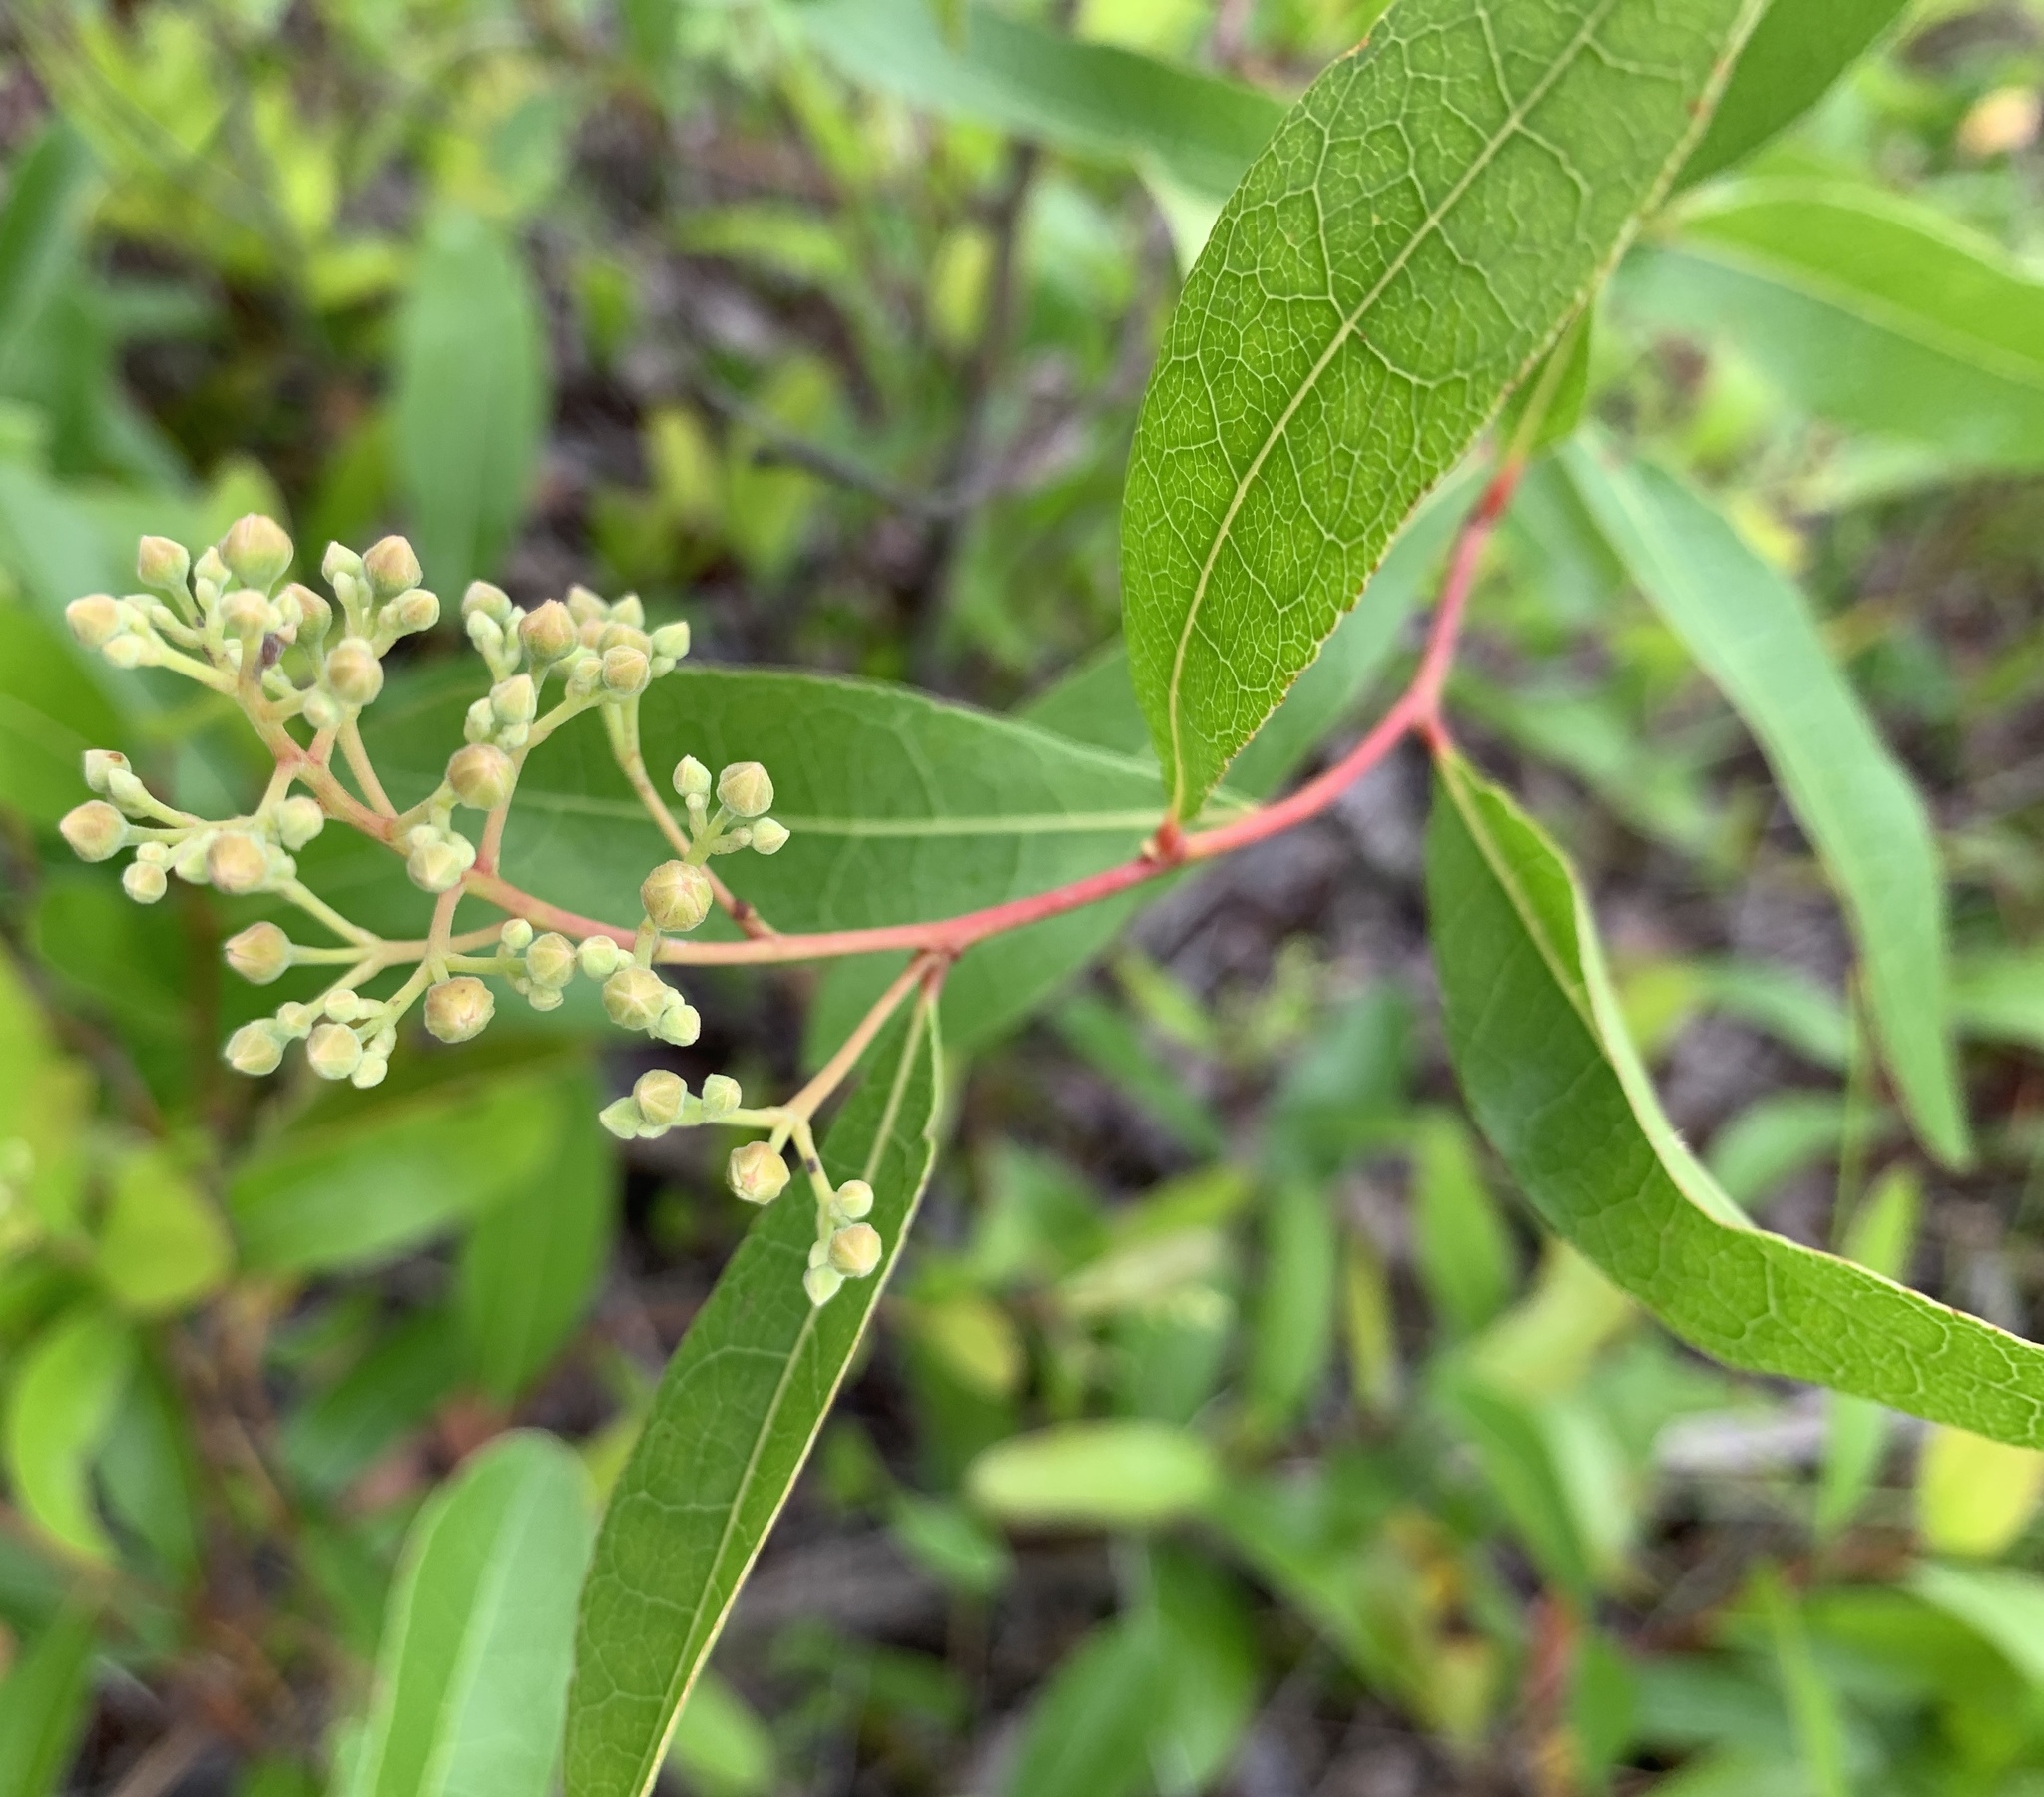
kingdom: Plantae
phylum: Tracheophyta
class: Magnoliopsida
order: Malpighiales
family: Chrysobalanaceae
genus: Geobalanus
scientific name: Geobalanus oblongifolius
